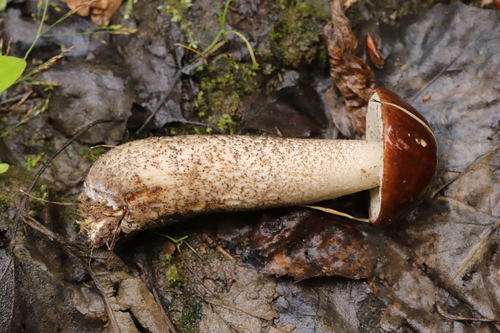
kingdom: Fungi
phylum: Basidiomycota
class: Agaricomycetes
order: Boletales
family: Boletaceae
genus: Leccinum
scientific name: Leccinum scabrum
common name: Blushing bolete
